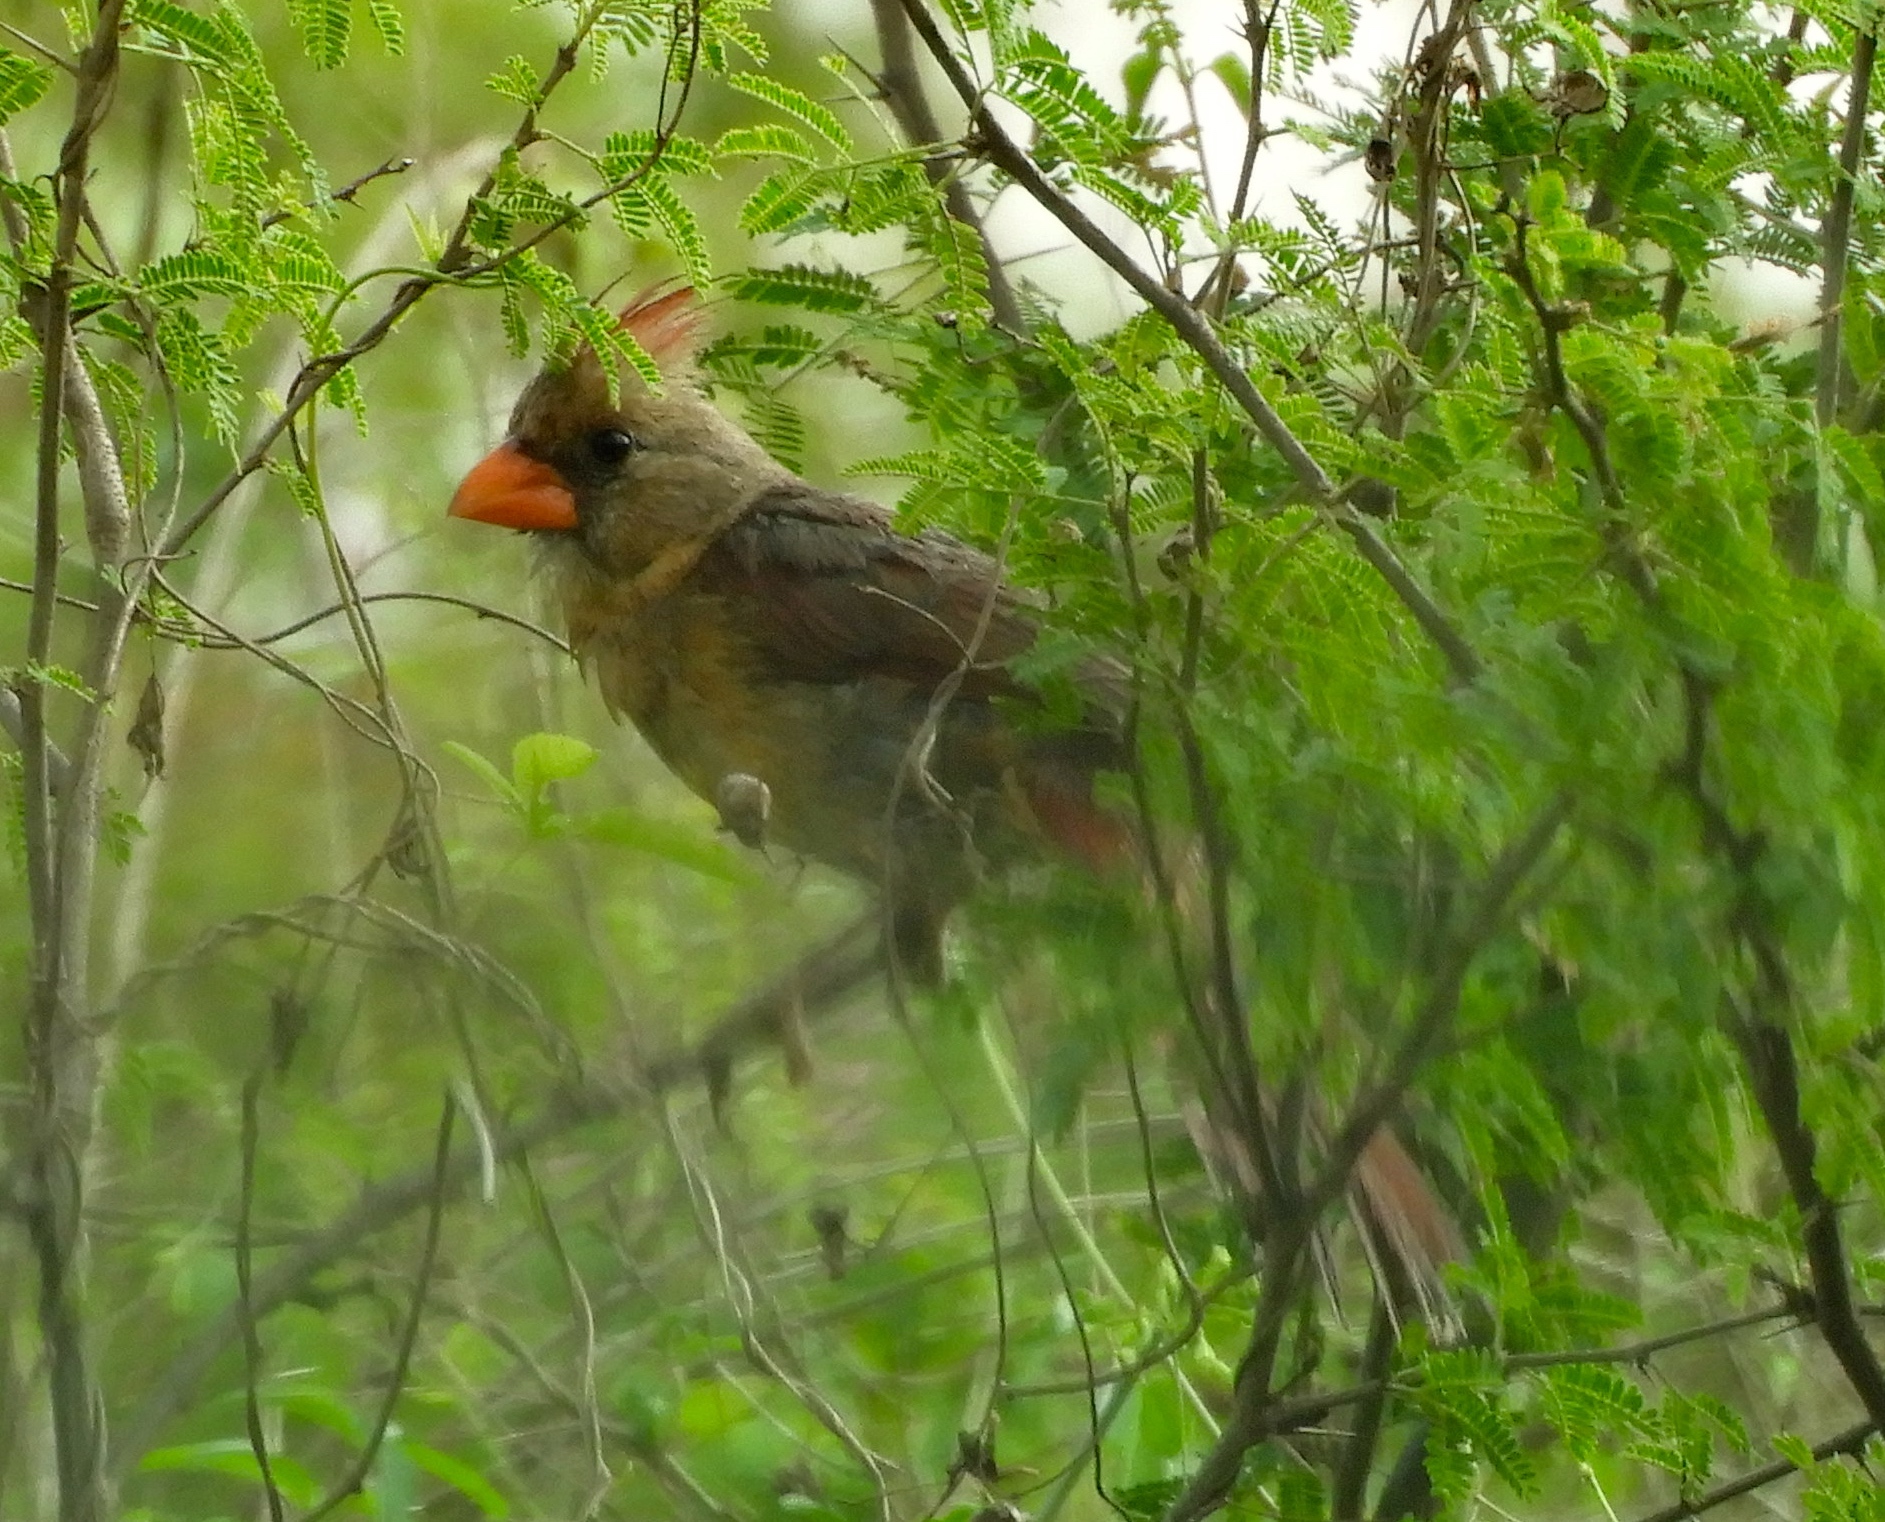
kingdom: Animalia
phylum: Chordata
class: Aves
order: Passeriformes
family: Cardinalidae
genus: Cardinalis
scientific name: Cardinalis cardinalis
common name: Northern cardinal
